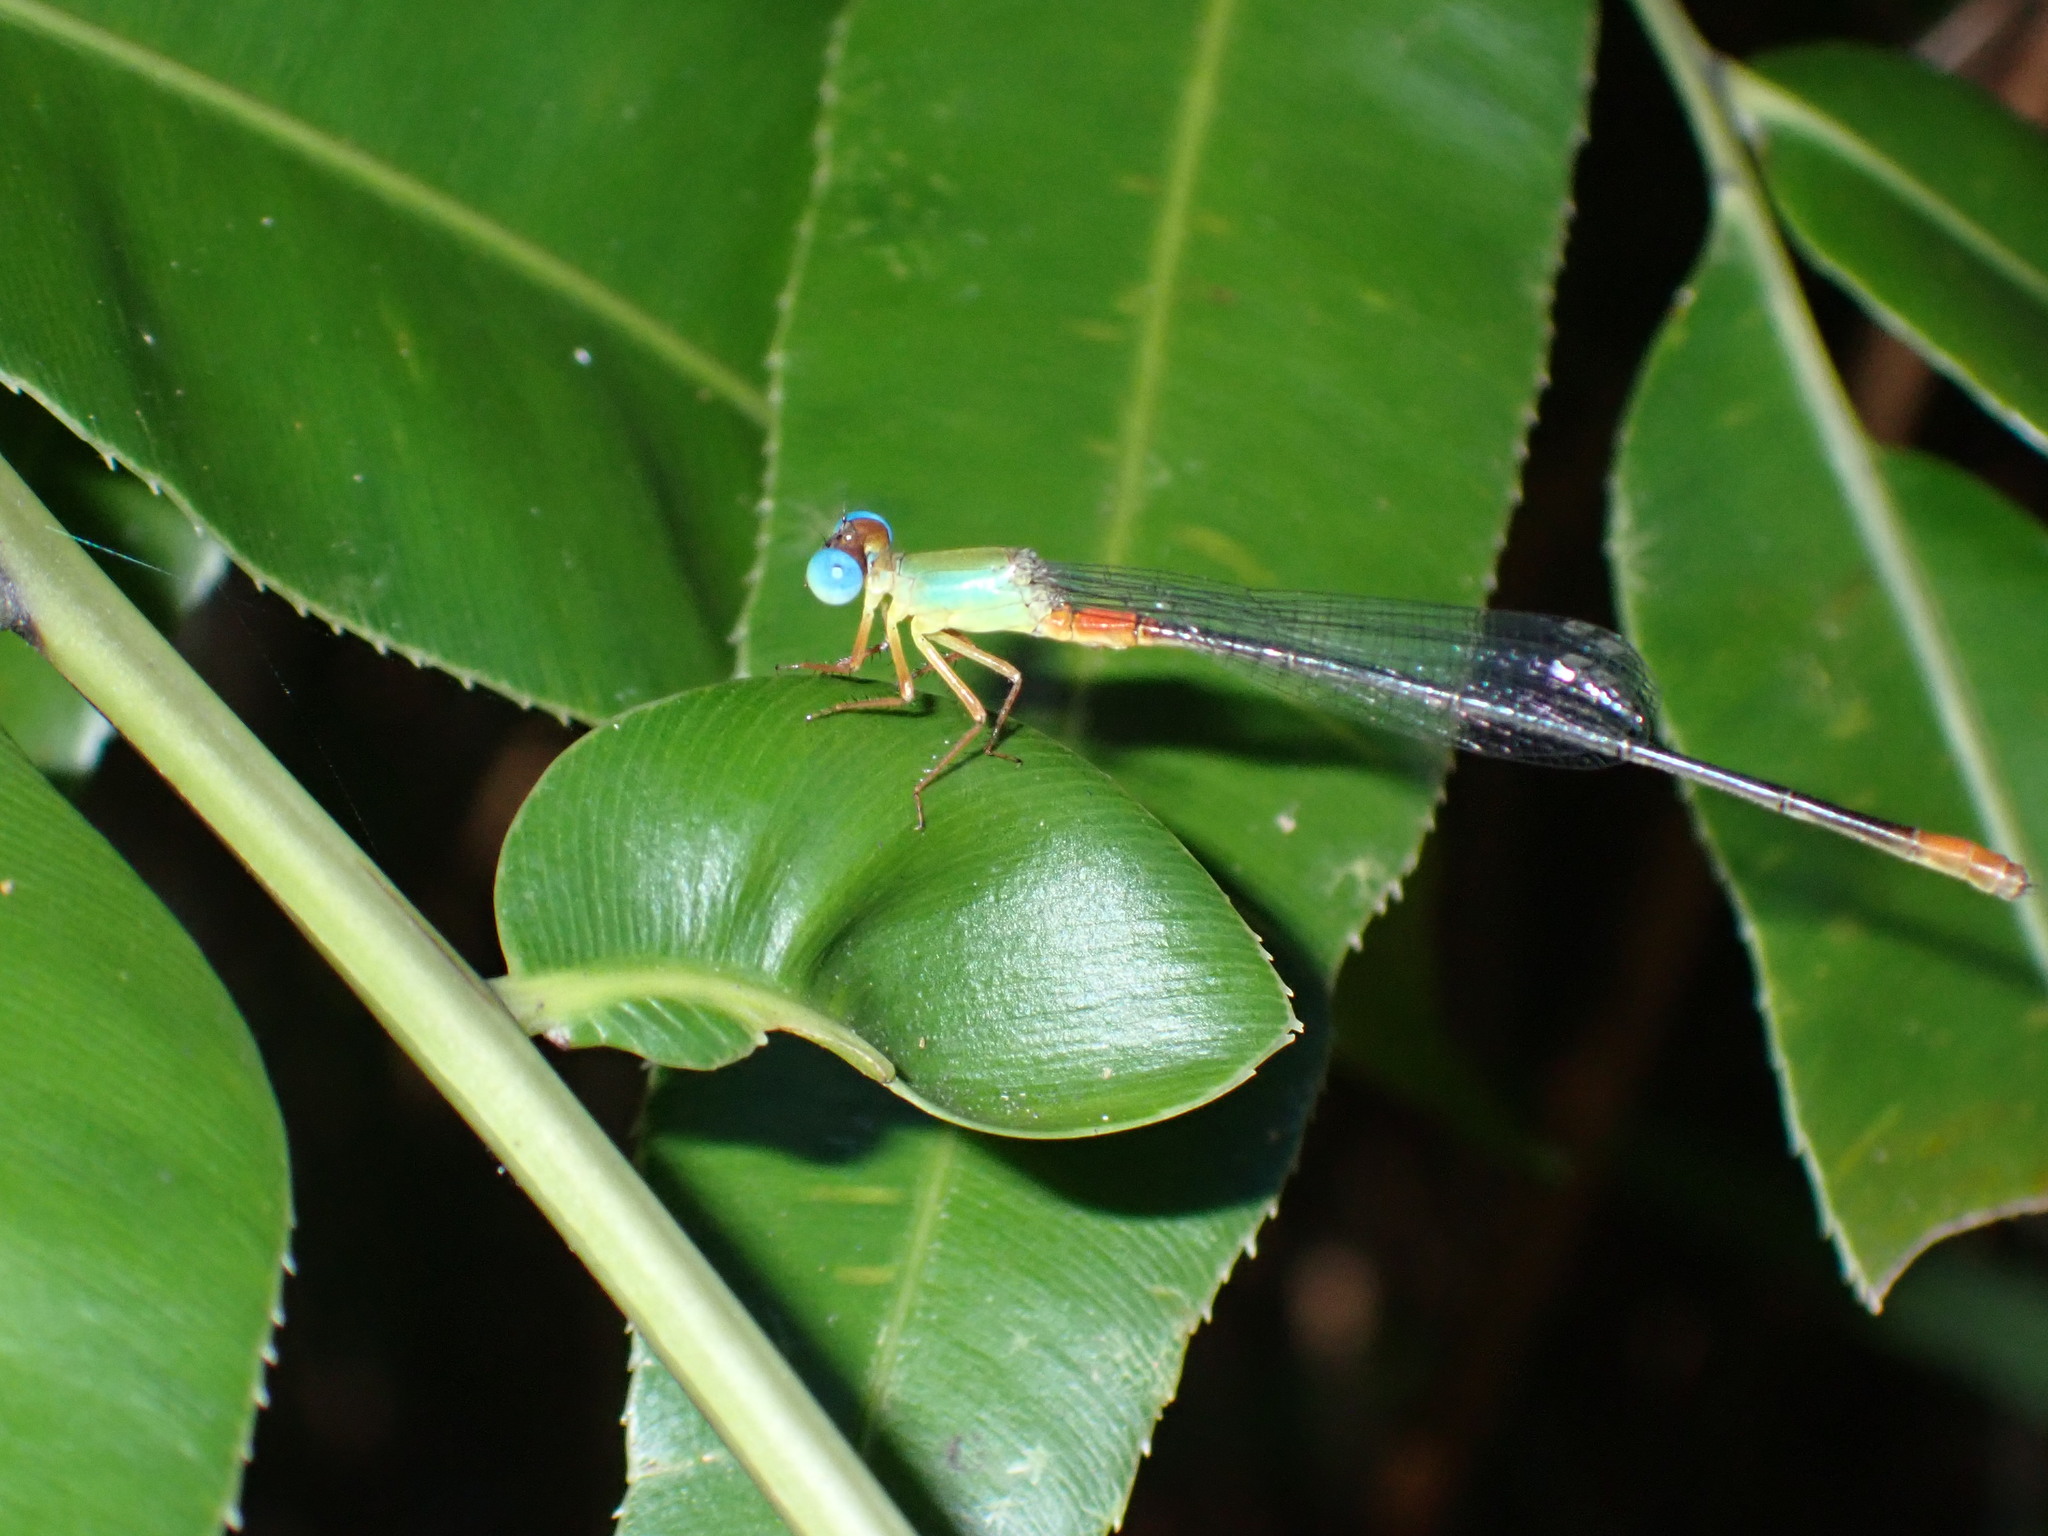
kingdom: Animalia
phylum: Arthropoda
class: Insecta
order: Odonata
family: Coenagrionidae
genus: Ceriagrion
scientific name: Ceriagrion cerinorubellum
